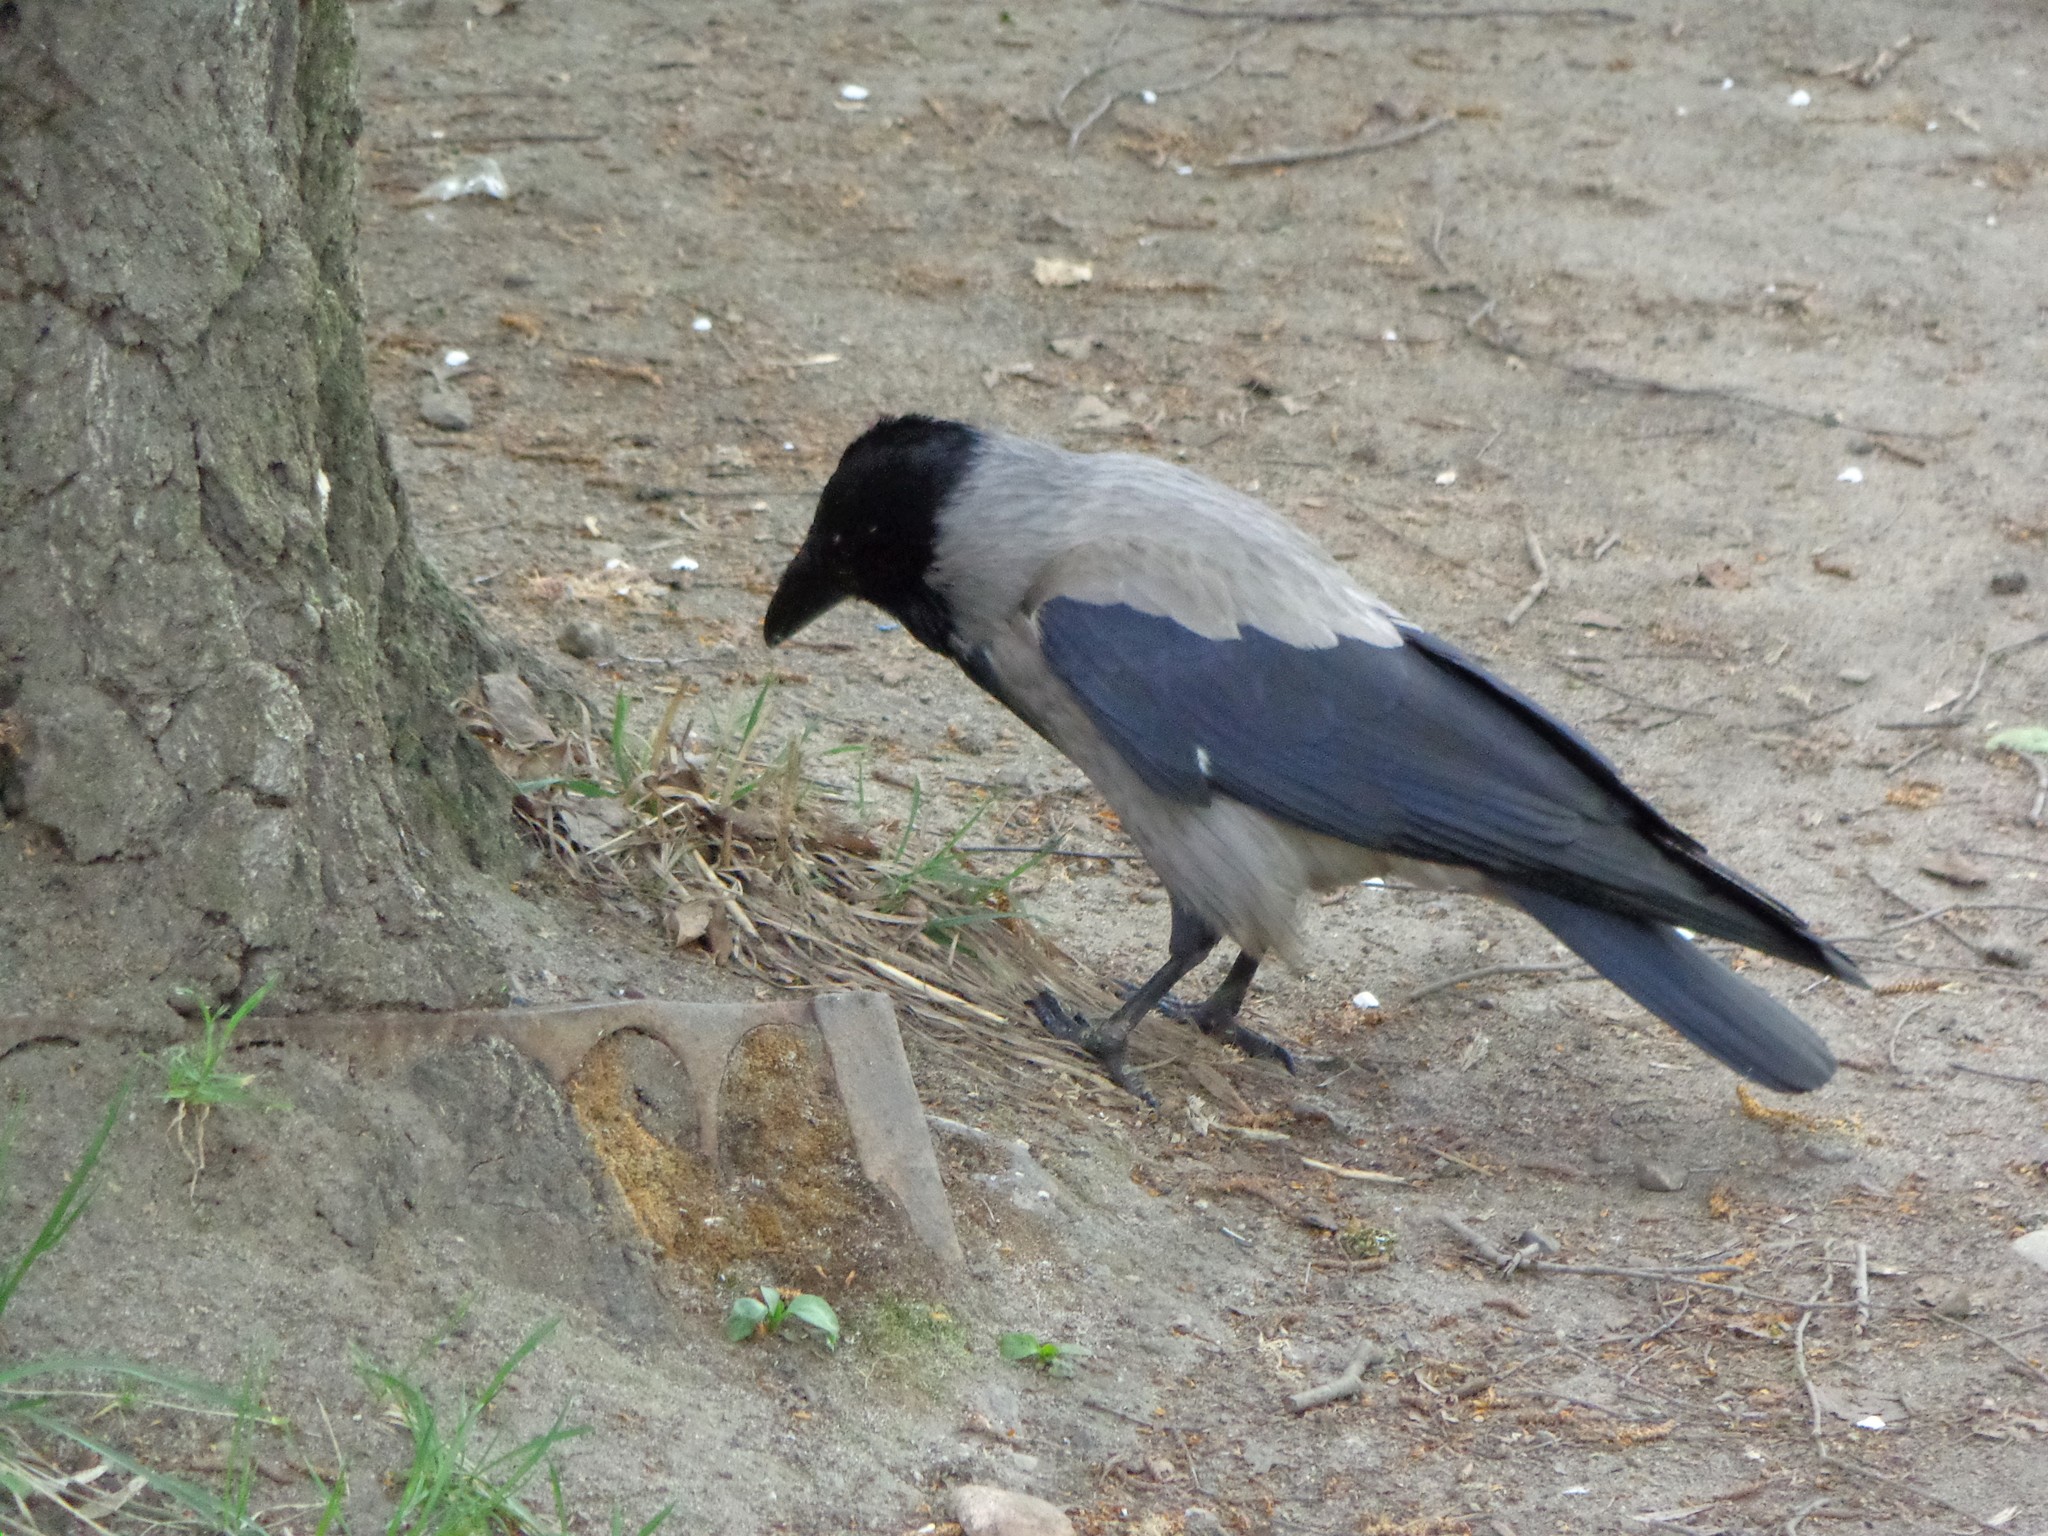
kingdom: Animalia
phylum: Chordata
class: Aves
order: Passeriformes
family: Corvidae
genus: Corvus
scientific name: Corvus cornix
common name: Hooded crow
